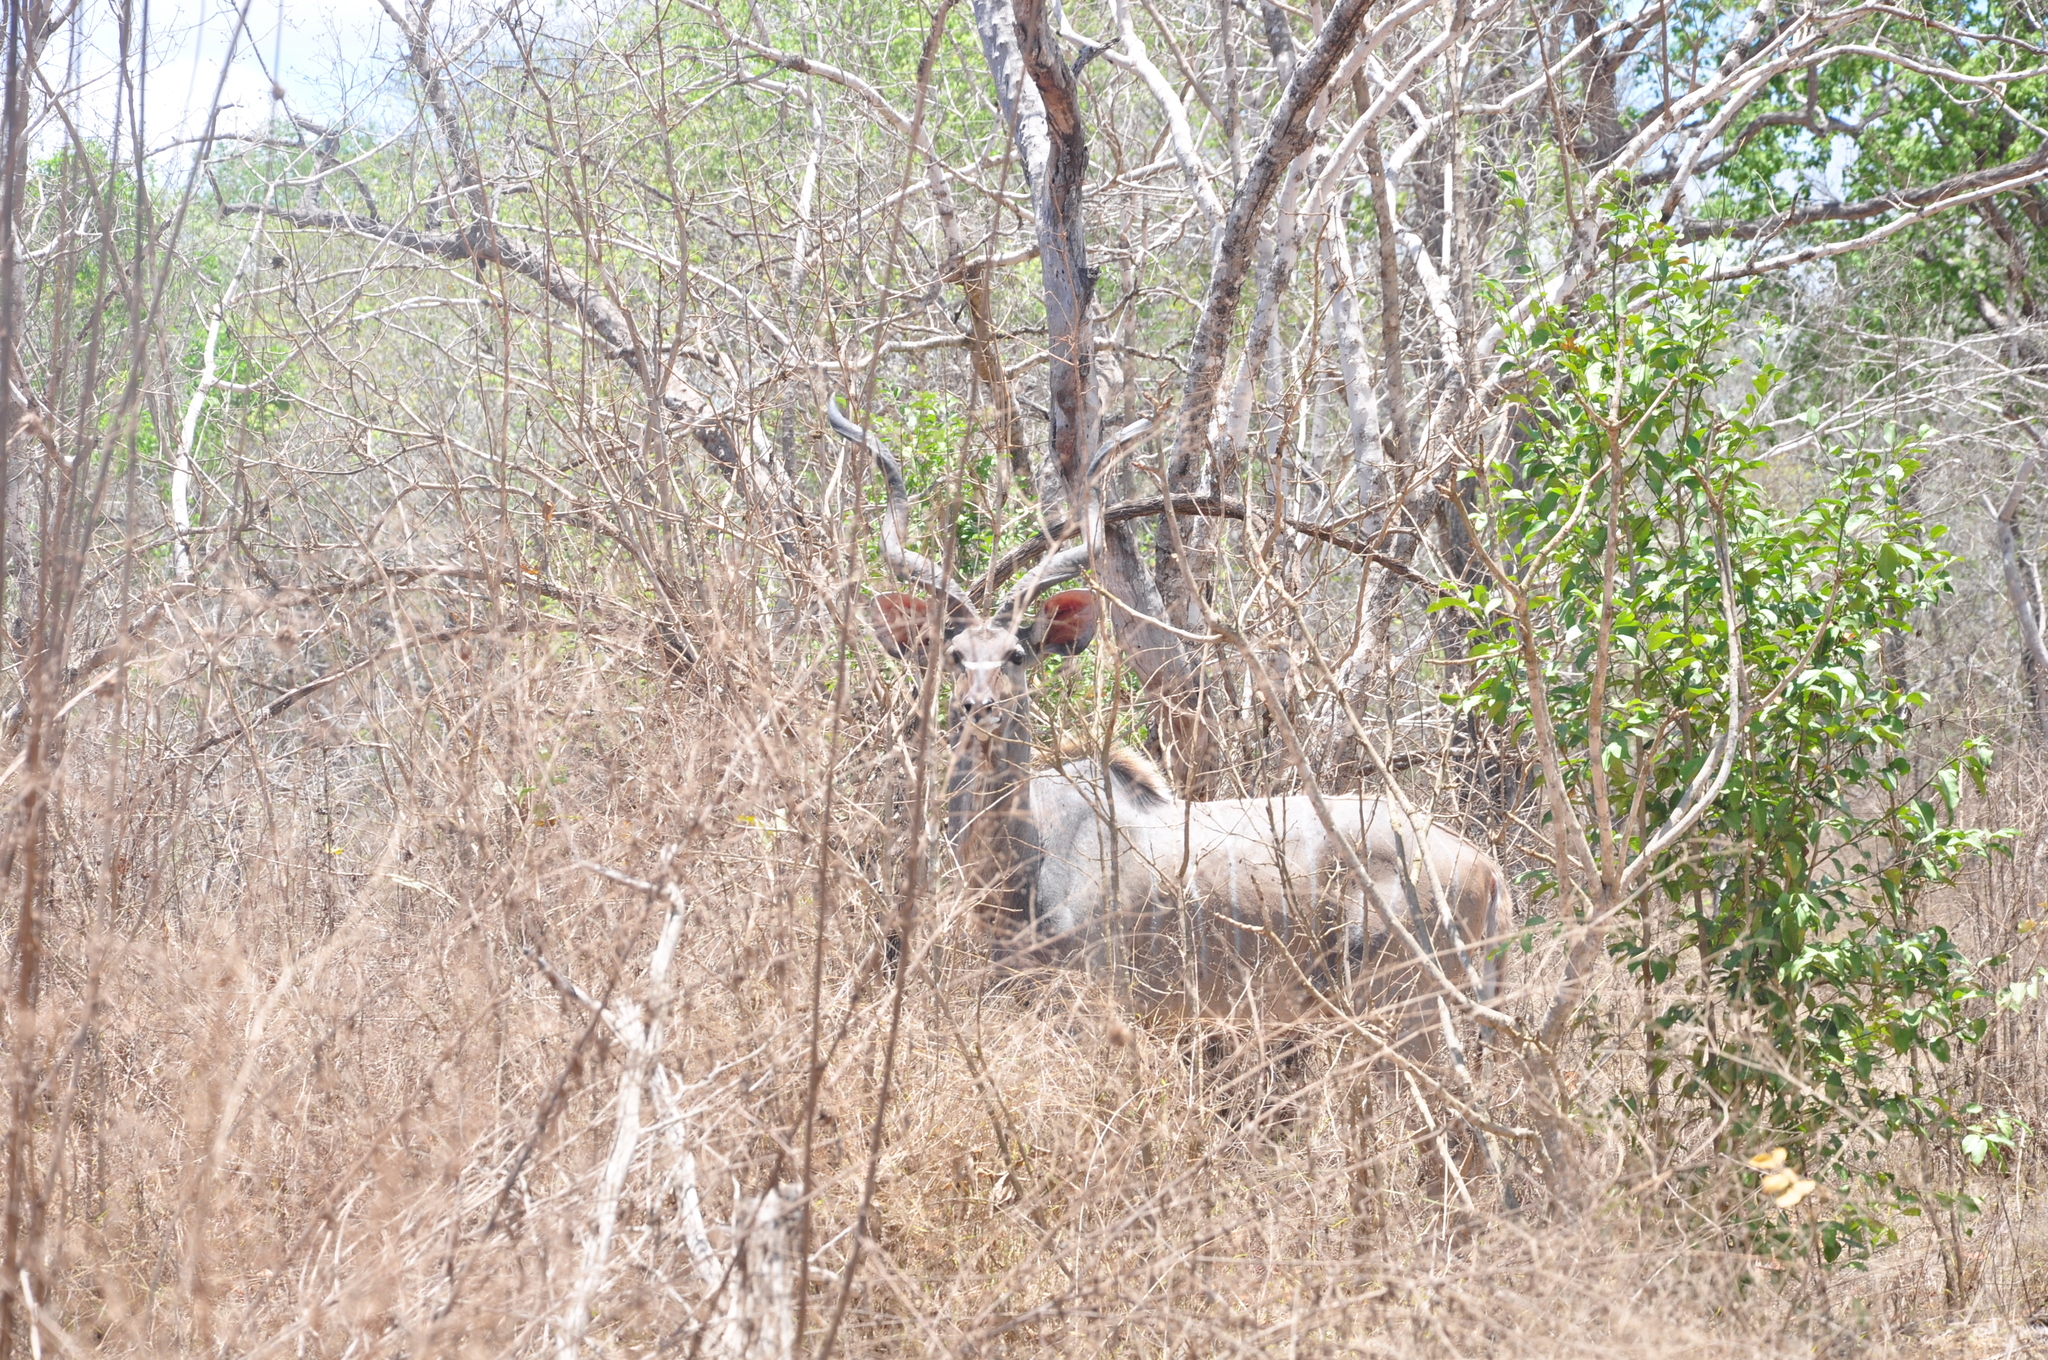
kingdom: Animalia
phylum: Chordata
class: Mammalia
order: Artiodactyla
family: Bovidae
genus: Tragelaphus
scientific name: Tragelaphus strepsiceros
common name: Greater kudu
